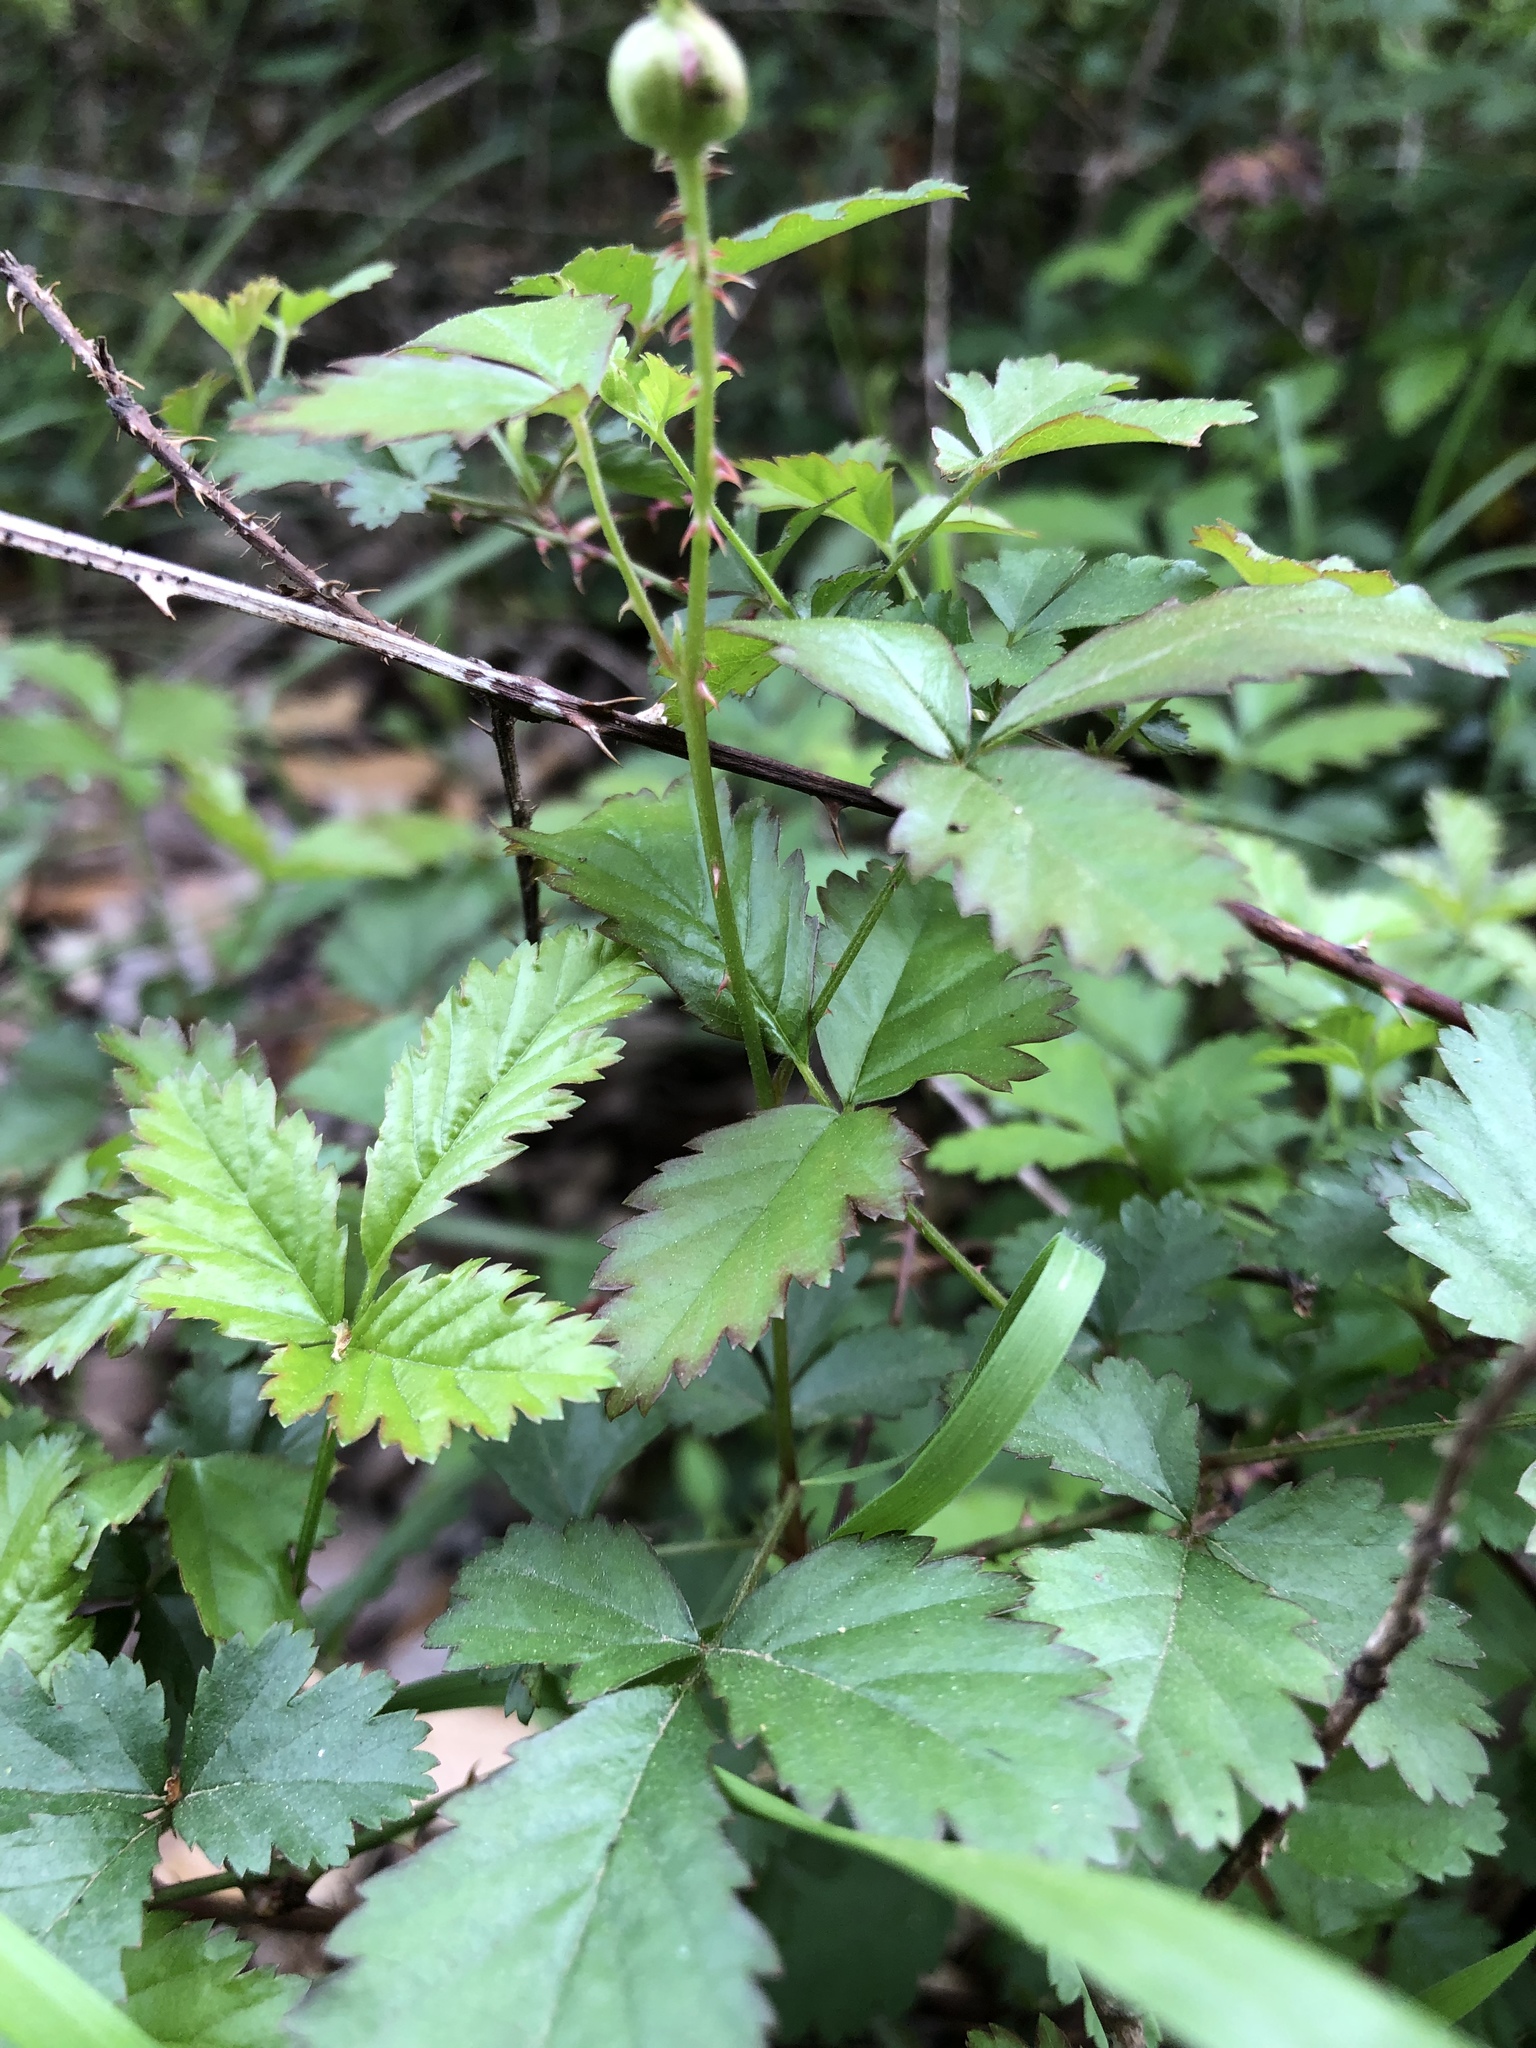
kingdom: Plantae
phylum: Tracheophyta
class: Magnoliopsida
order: Rosales
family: Rosaceae
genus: Rubus
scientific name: Rubus trivialis
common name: Southern dewberry
